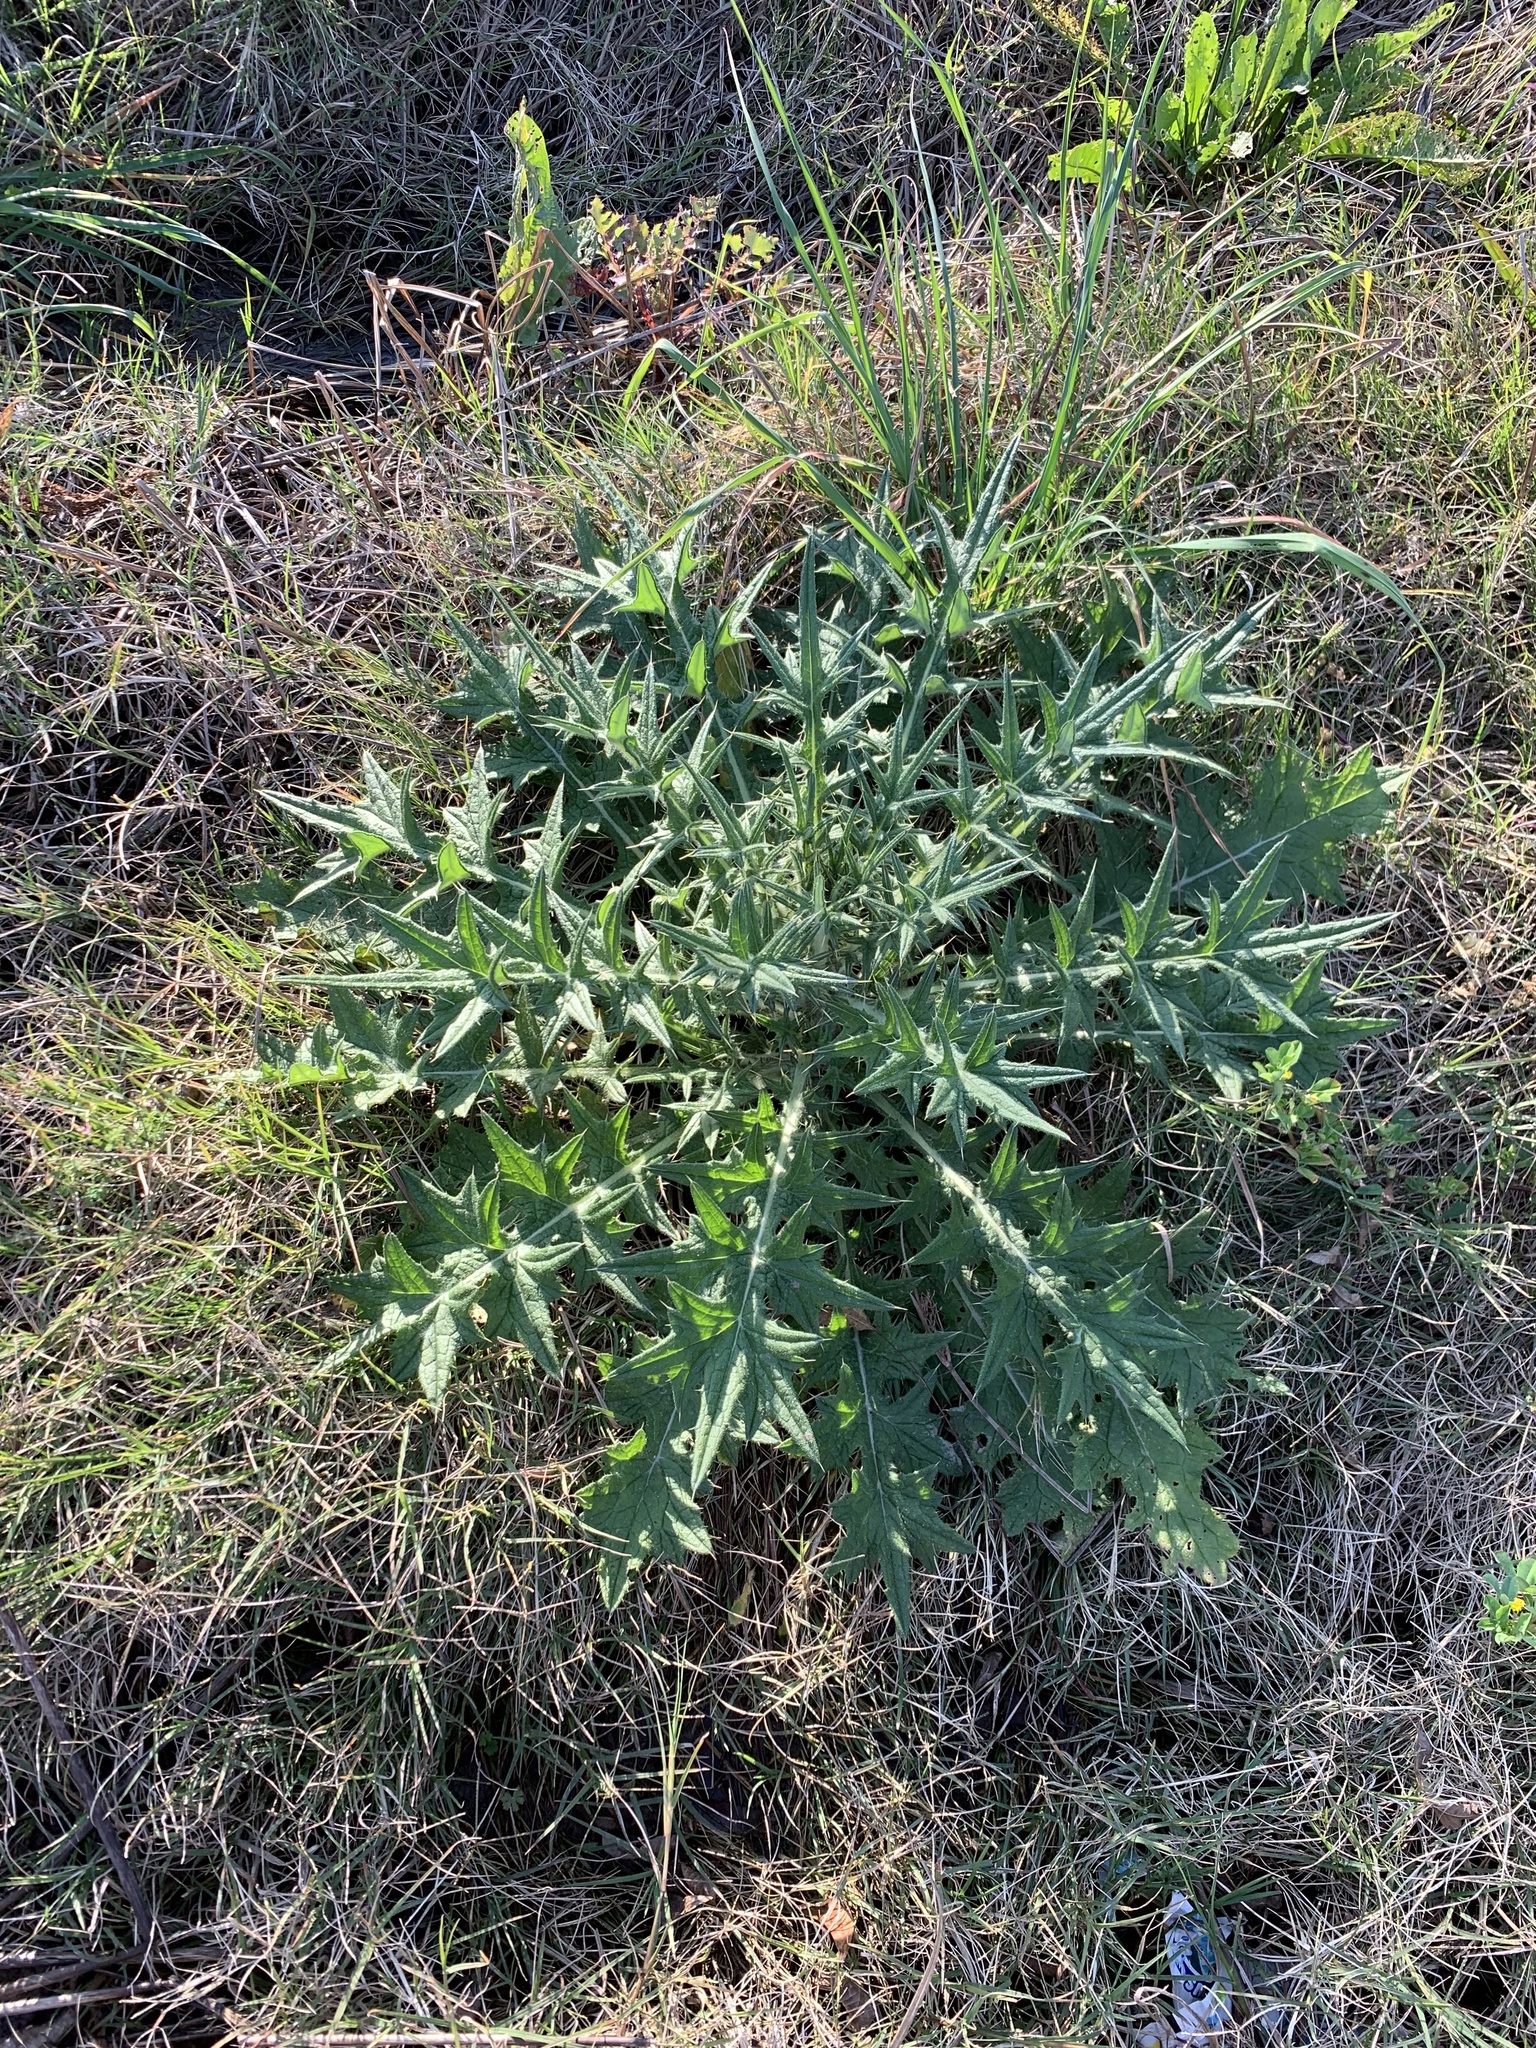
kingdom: Plantae
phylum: Tracheophyta
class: Magnoliopsida
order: Asterales
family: Asteraceae
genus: Cirsium
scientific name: Cirsium vulgare
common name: Bull thistle
